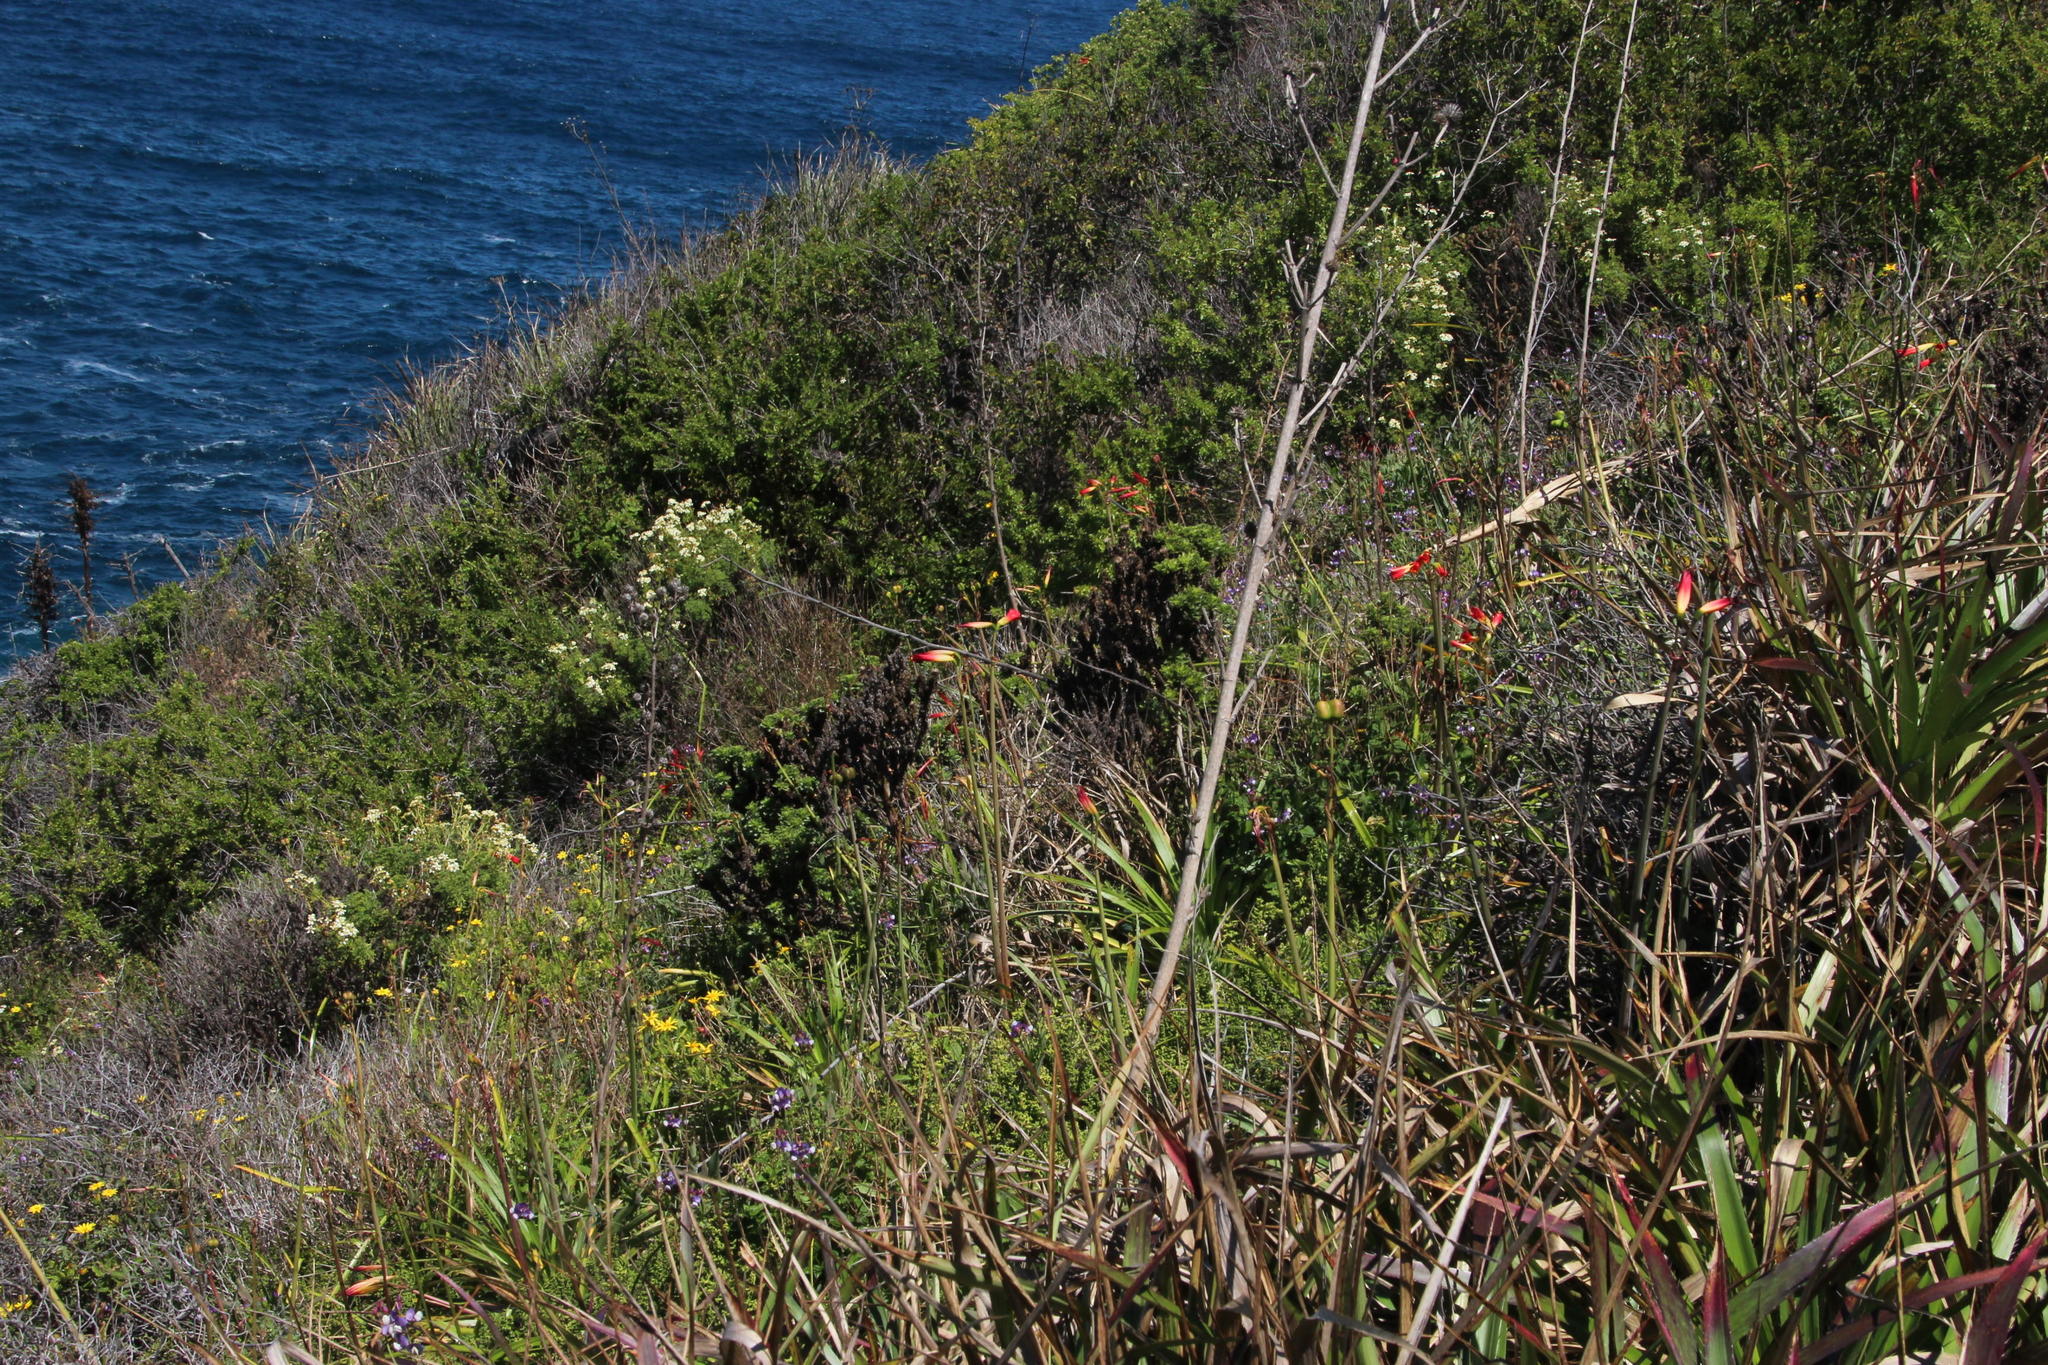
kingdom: Plantae
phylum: Tracheophyta
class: Liliopsida
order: Asparagales
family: Amaryllidaceae
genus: Phycella
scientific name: Phycella cyrtanthoides
